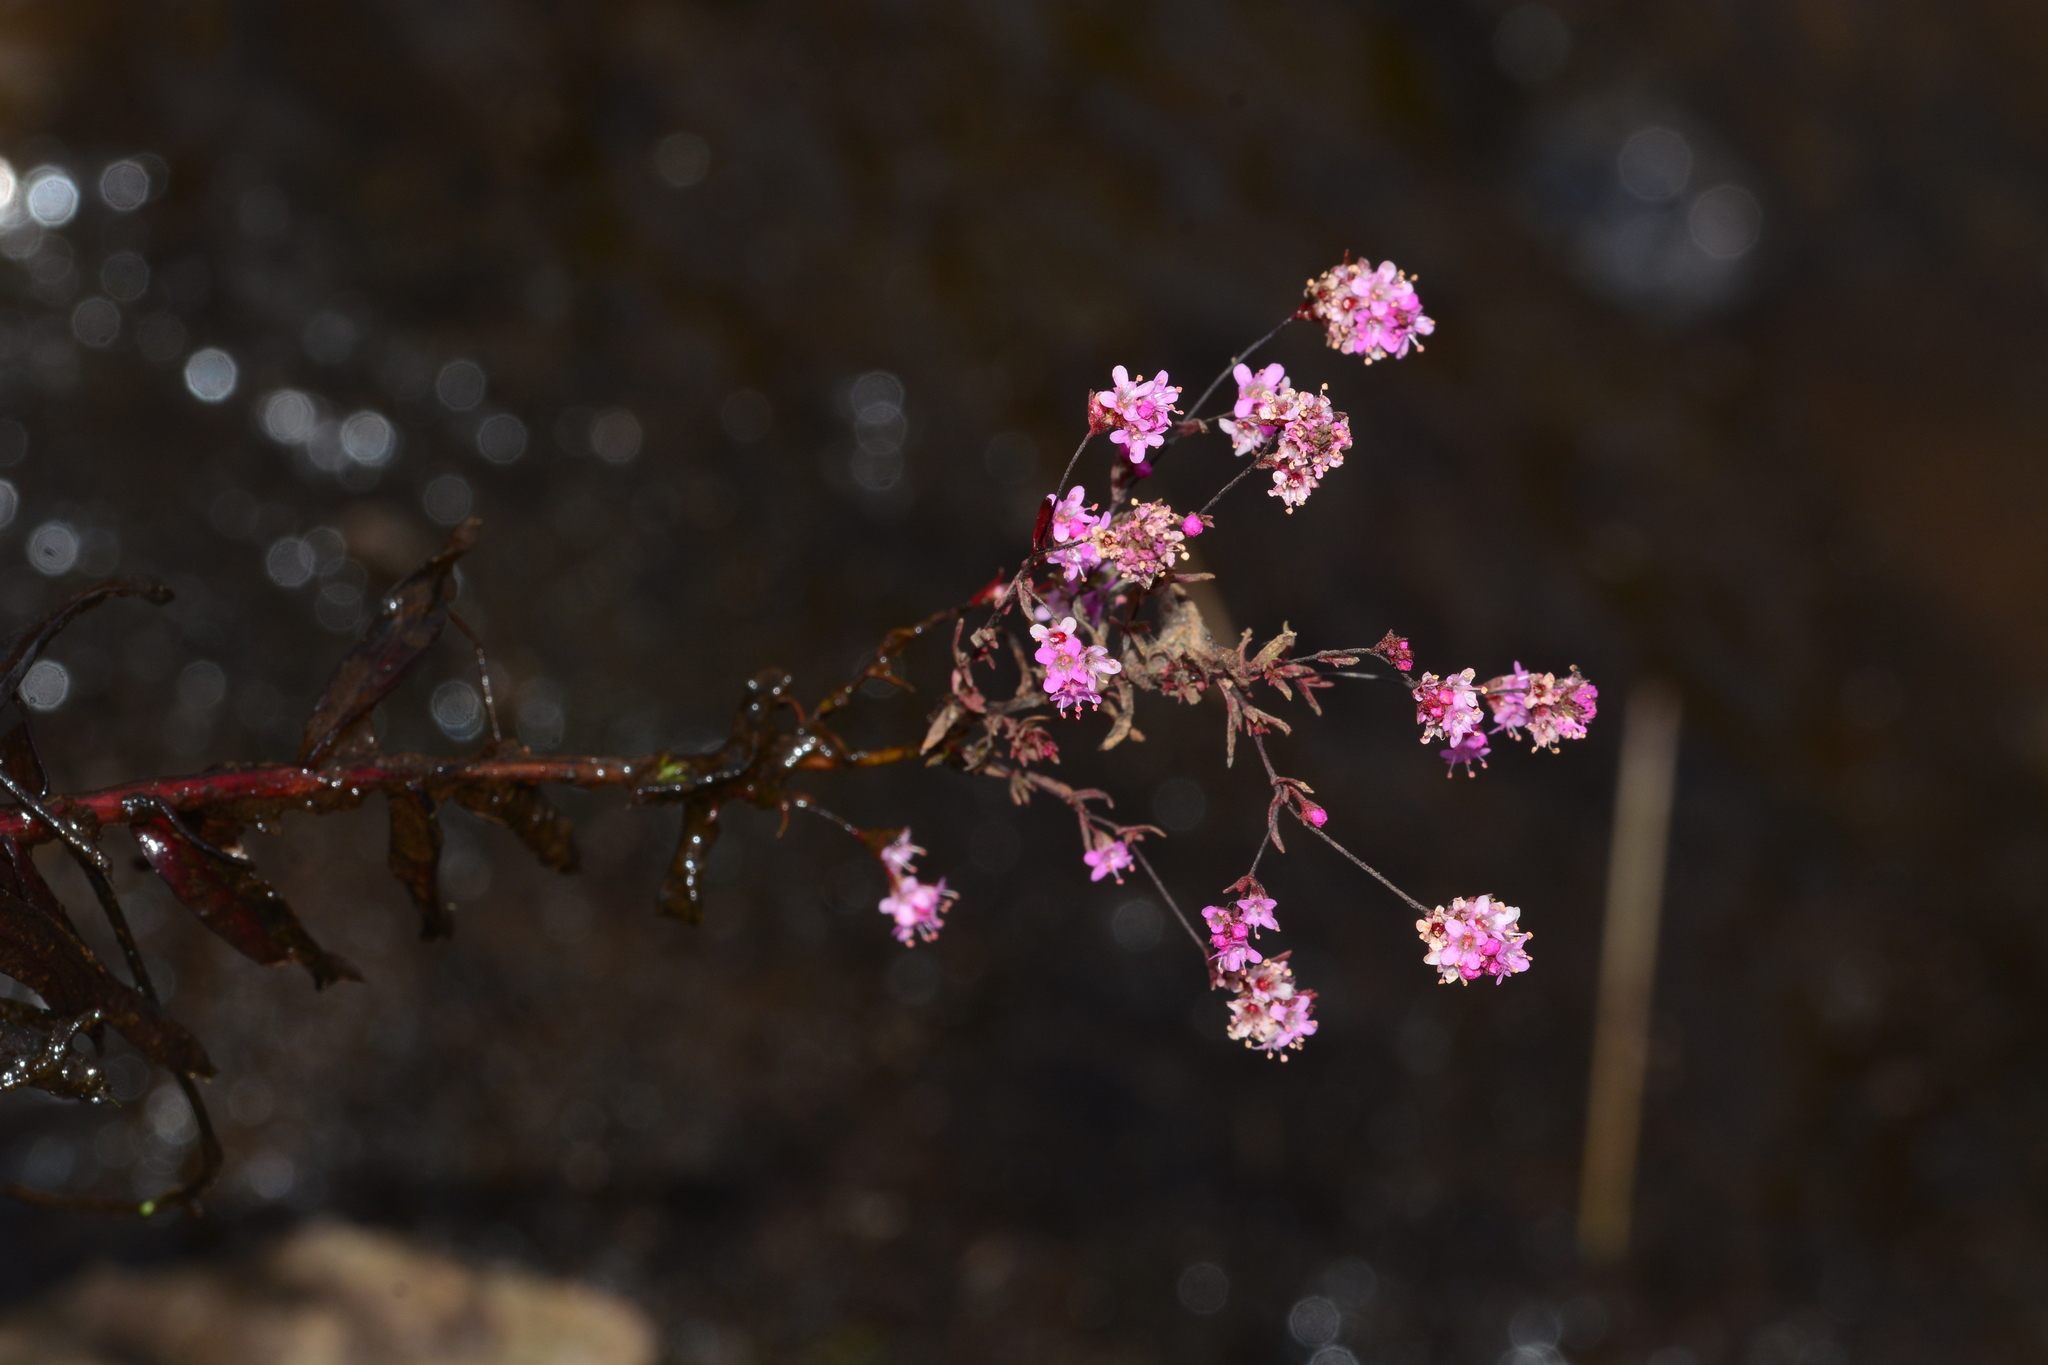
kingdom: Plantae
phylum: Tracheophyta
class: Magnoliopsida
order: Myrtales
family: Lythraceae
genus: Rotala
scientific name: Rotala floribunda
